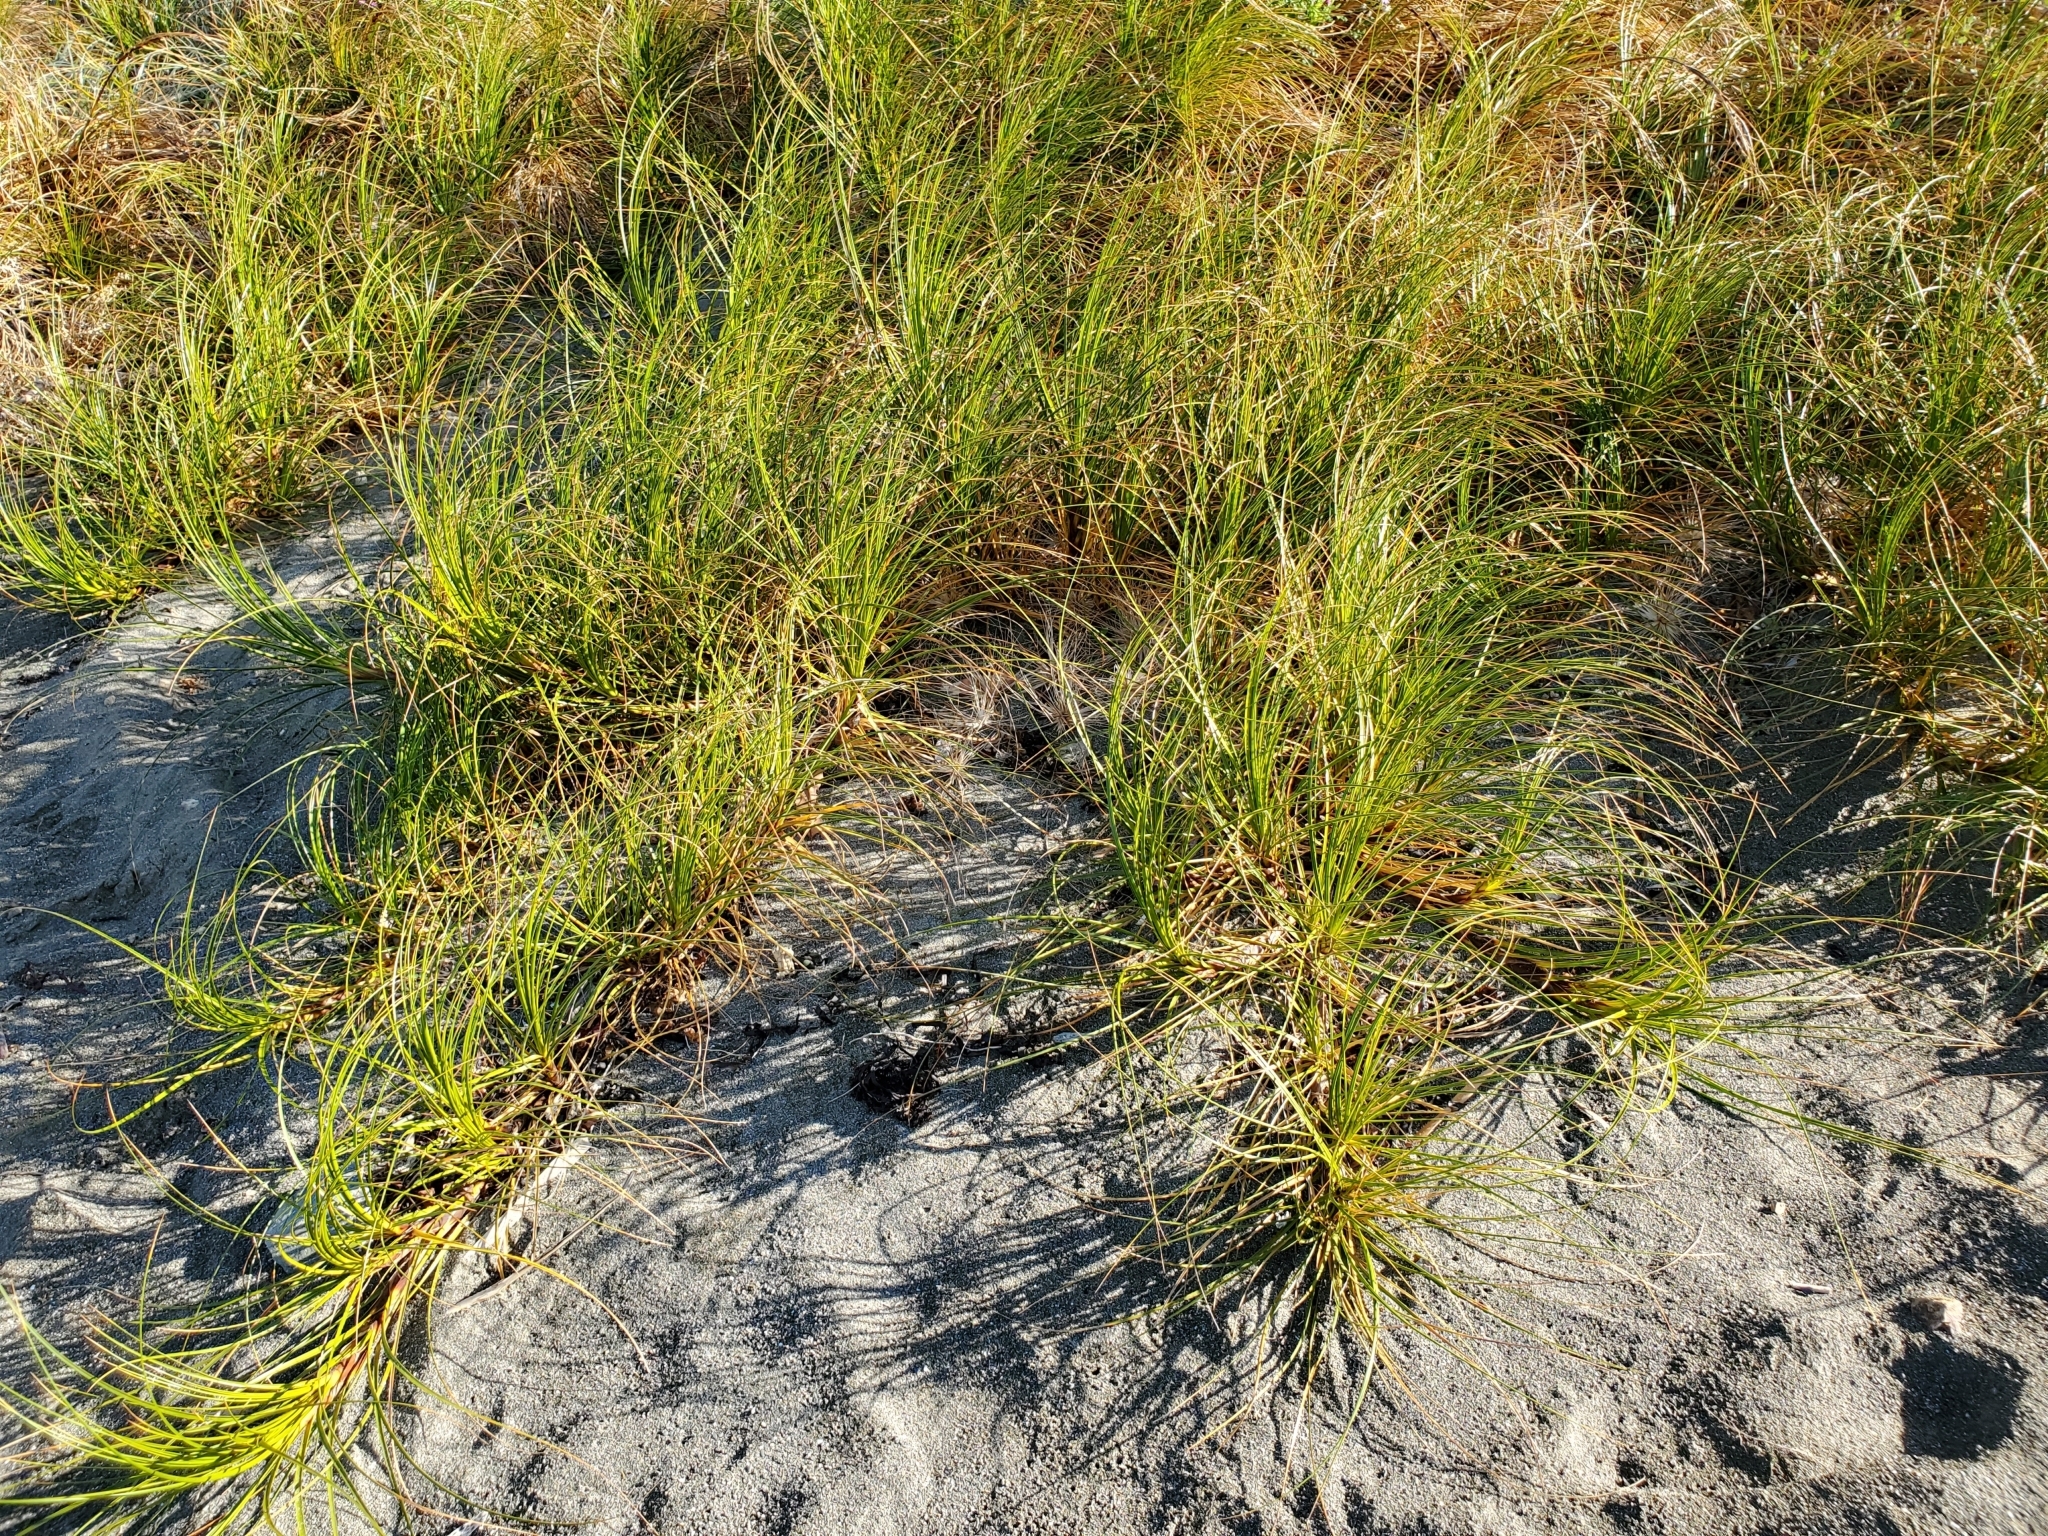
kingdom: Plantae
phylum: Tracheophyta
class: Liliopsida
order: Poales
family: Cyperaceae
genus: Ficinia
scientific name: Ficinia spiralis
